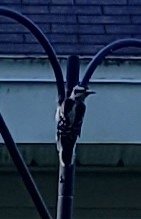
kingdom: Animalia
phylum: Chordata
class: Aves
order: Piciformes
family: Picidae
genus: Dryobates
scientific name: Dryobates pubescens
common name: Downy woodpecker
